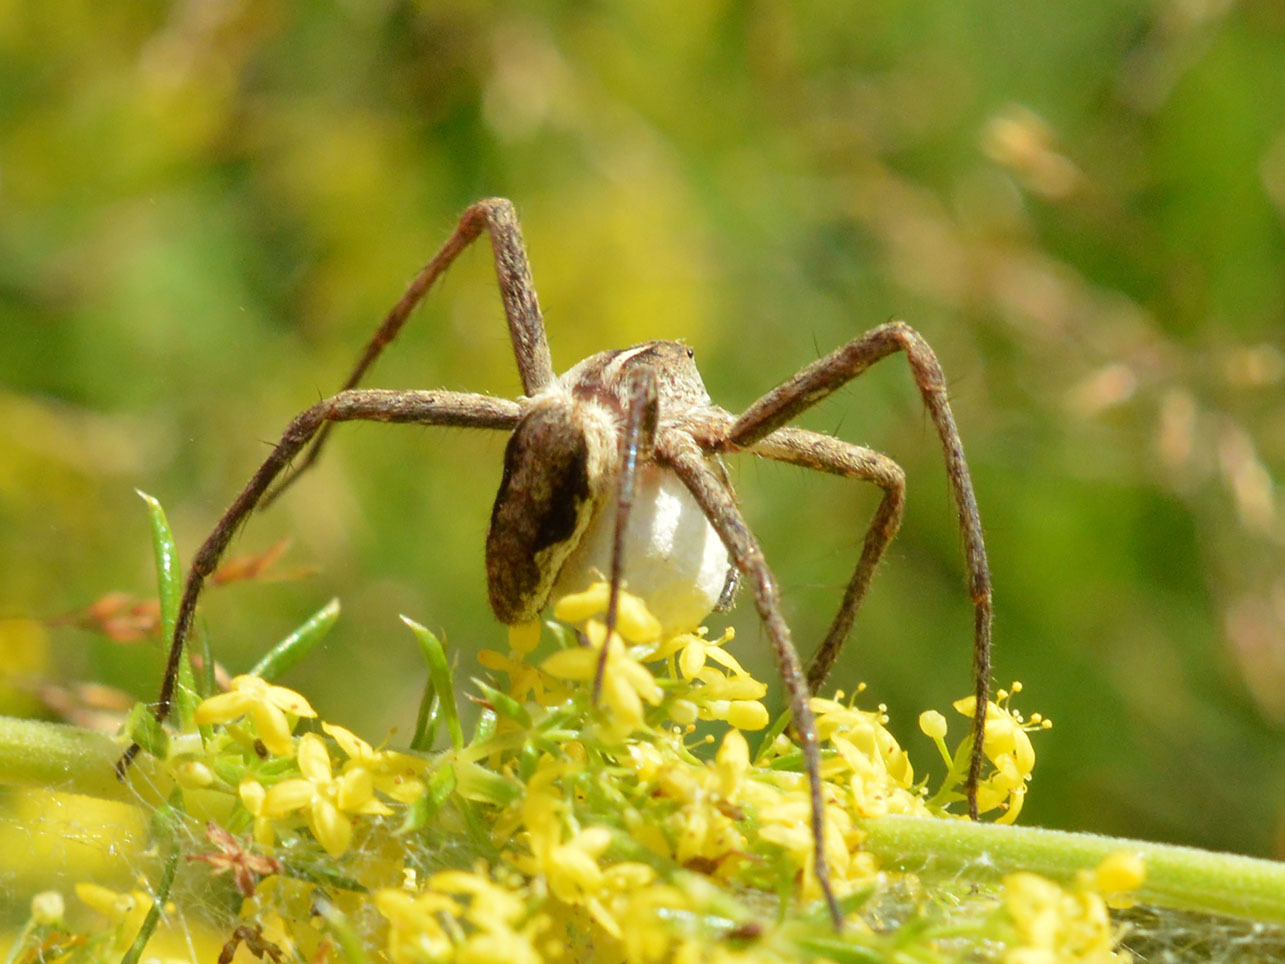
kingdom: Animalia
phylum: Arthropoda
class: Arachnida
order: Araneae
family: Pisauridae
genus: Pisaura
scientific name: Pisaura
